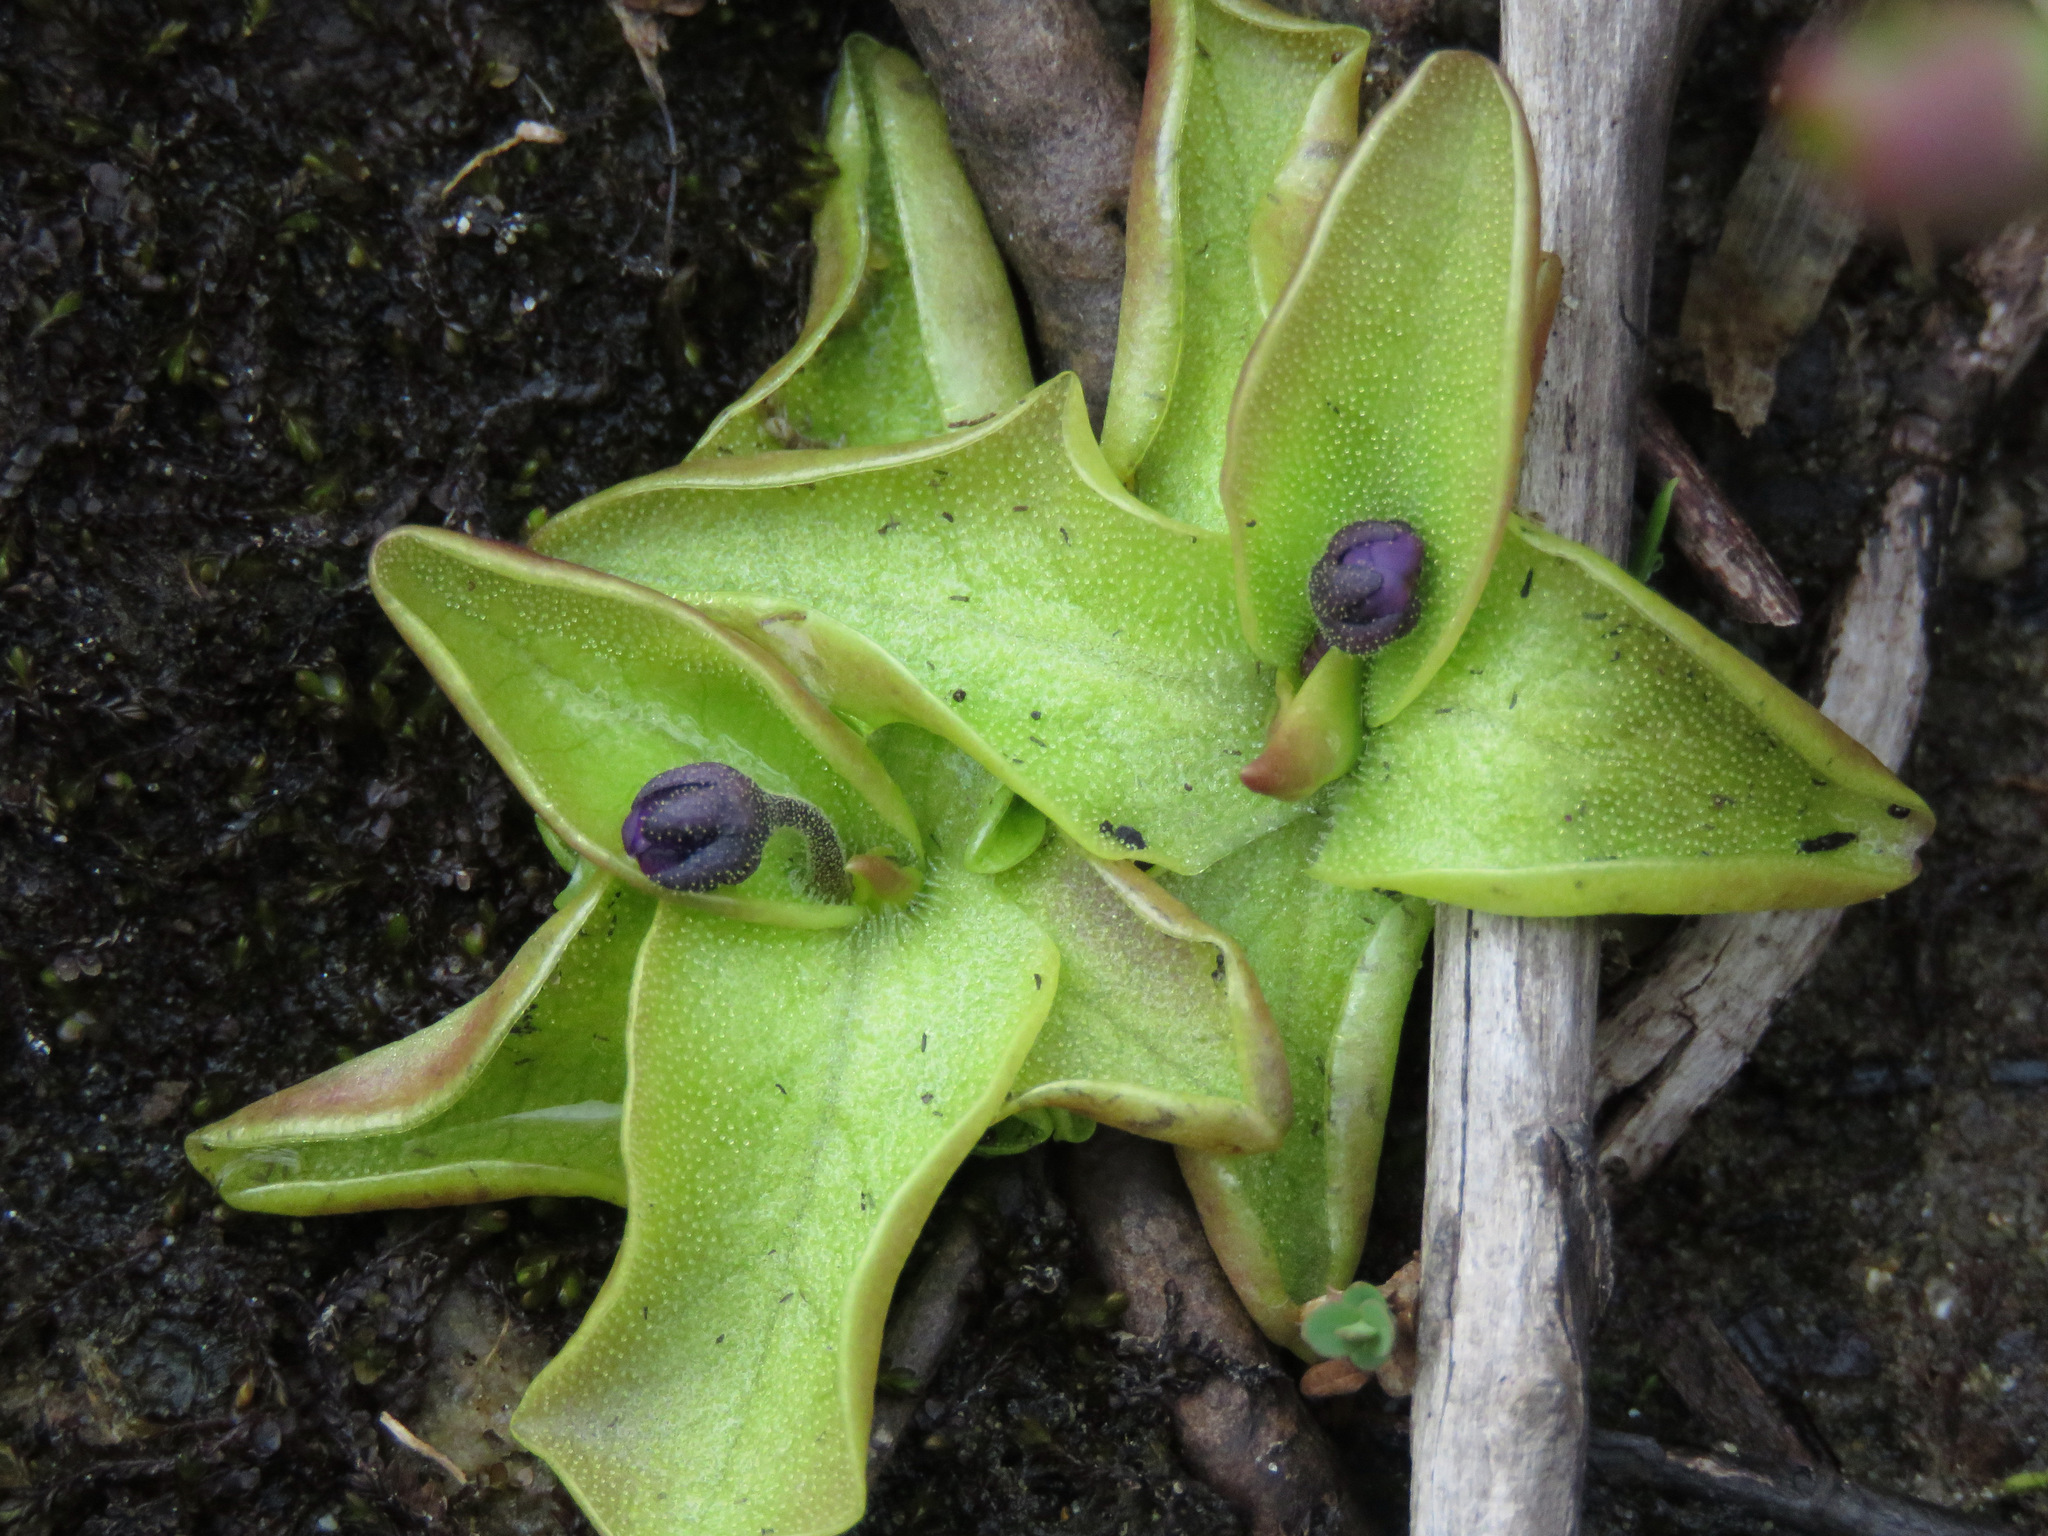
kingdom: Plantae
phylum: Tracheophyta
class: Magnoliopsida
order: Lamiales
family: Lentibulariaceae
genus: Pinguicula
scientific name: Pinguicula vulgaris
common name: Common butterwort
